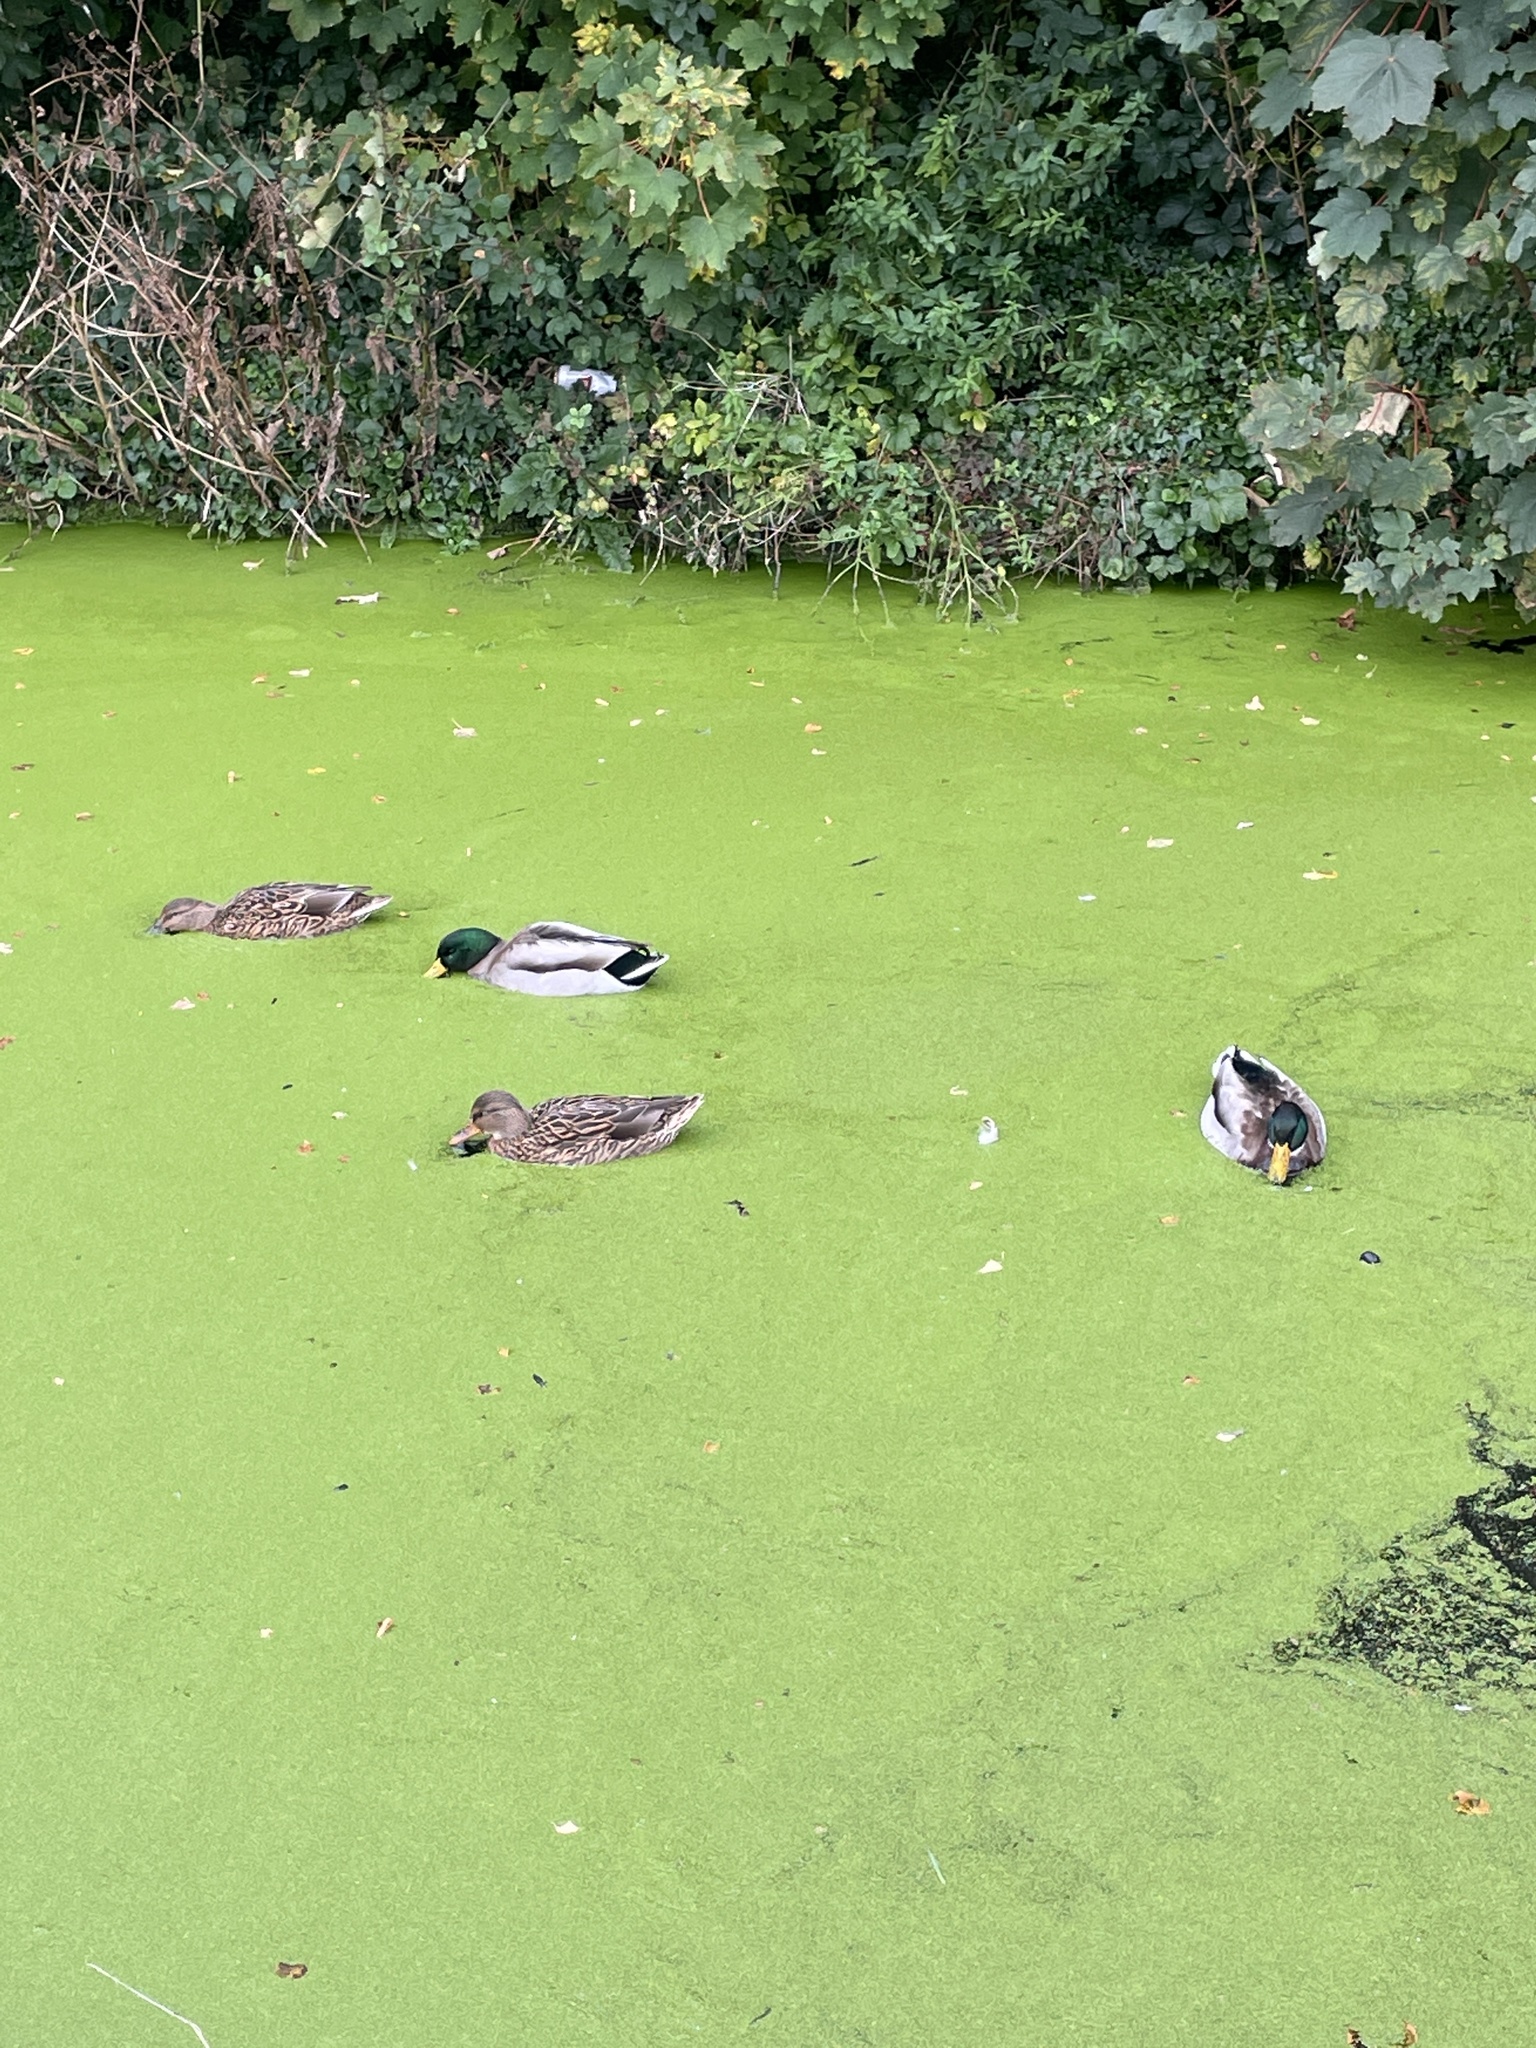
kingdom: Animalia
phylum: Chordata
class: Aves
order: Anseriformes
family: Anatidae
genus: Anas
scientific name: Anas platyrhynchos
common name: Mallard
